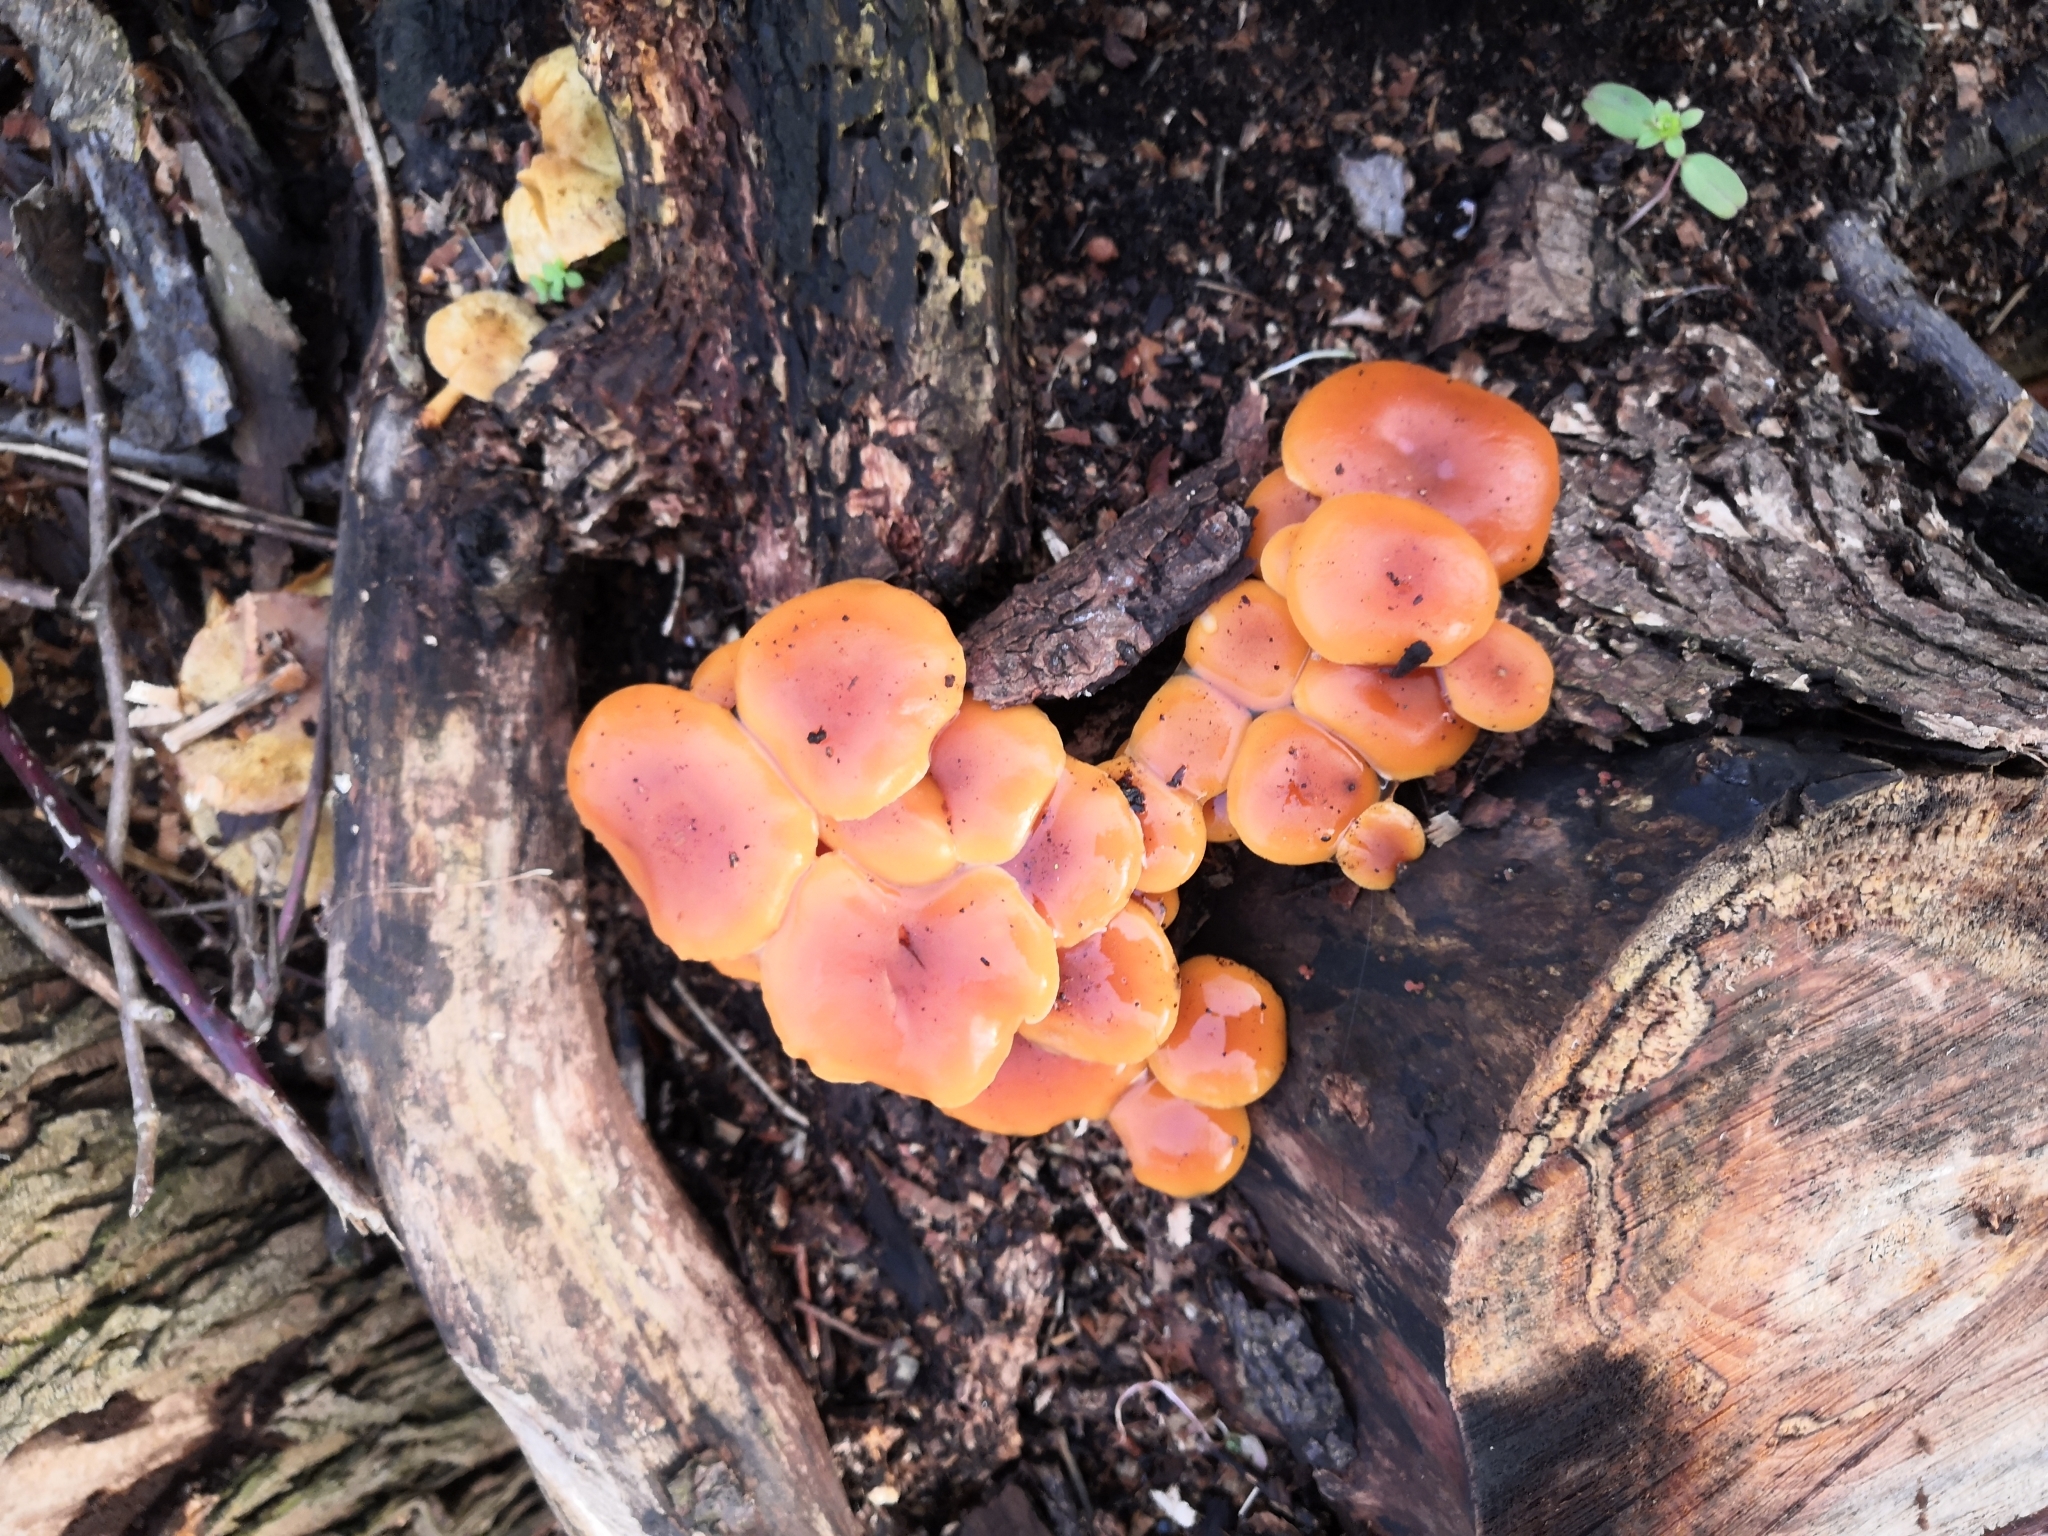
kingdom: Fungi
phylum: Basidiomycota
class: Agaricomycetes
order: Agaricales
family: Physalacriaceae
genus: Flammulina
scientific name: Flammulina
